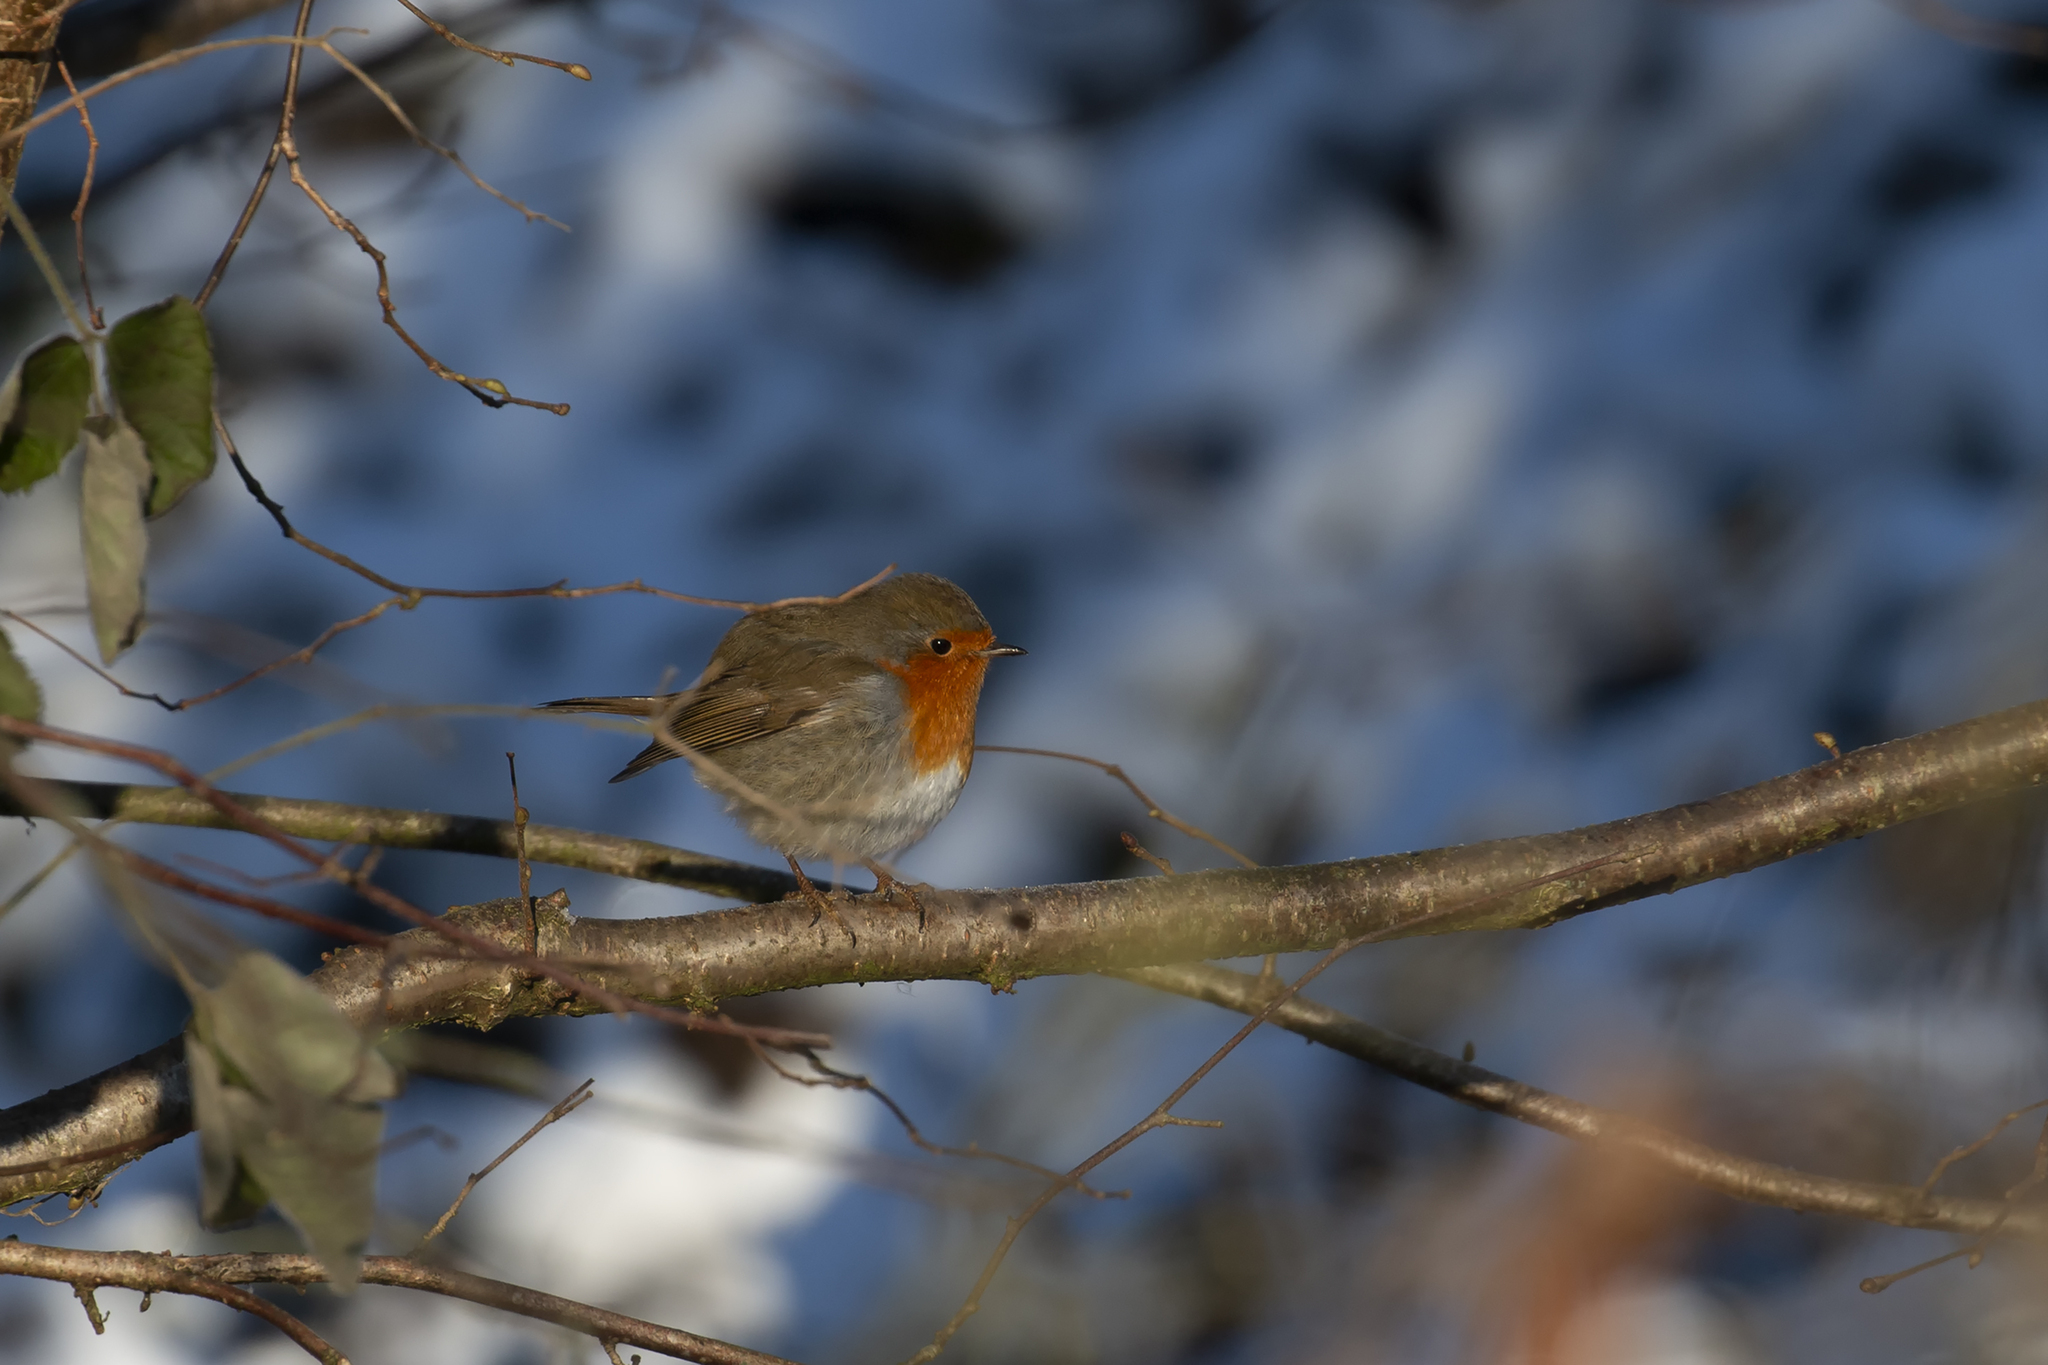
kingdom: Animalia
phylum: Chordata
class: Aves
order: Passeriformes
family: Muscicapidae
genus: Erithacus
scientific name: Erithacus rubecula
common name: European robin
